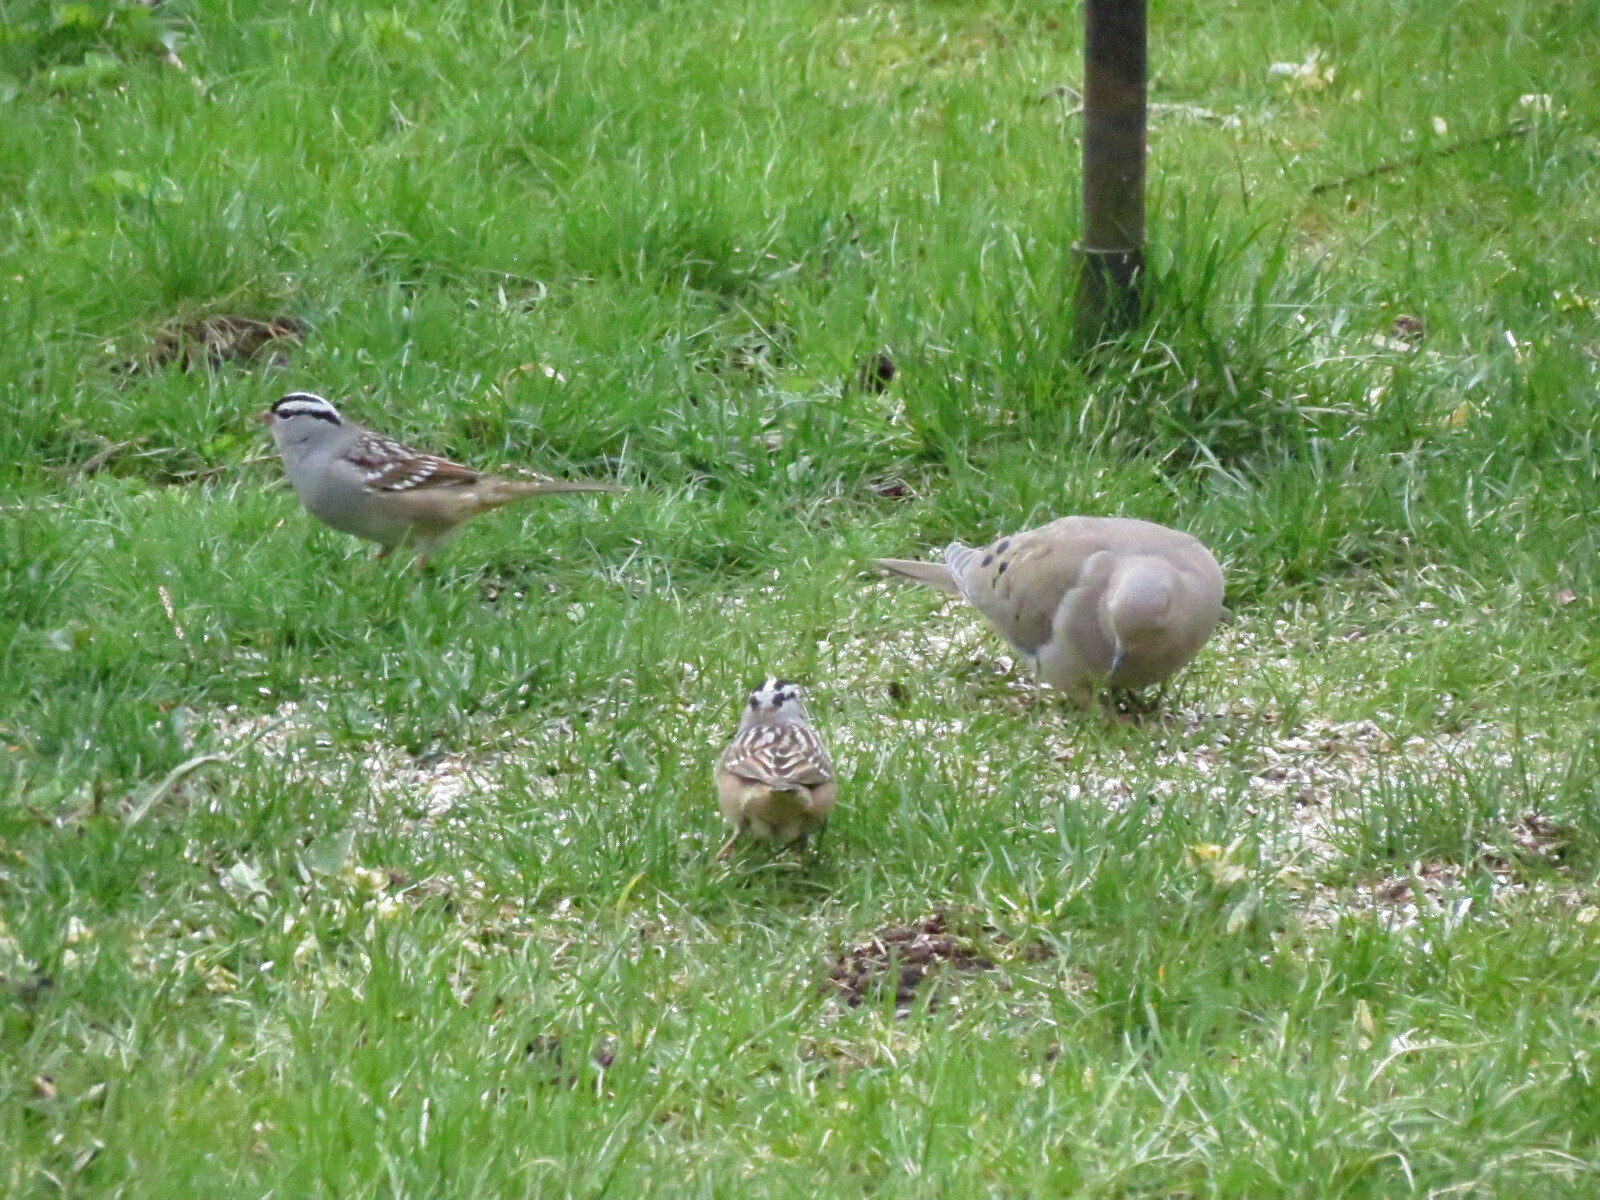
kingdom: Animalia
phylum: Chordata
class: Aves
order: Columbiformes
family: Columbidae
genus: Zenaida
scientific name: Zenaida macroura
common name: Mourning dove
